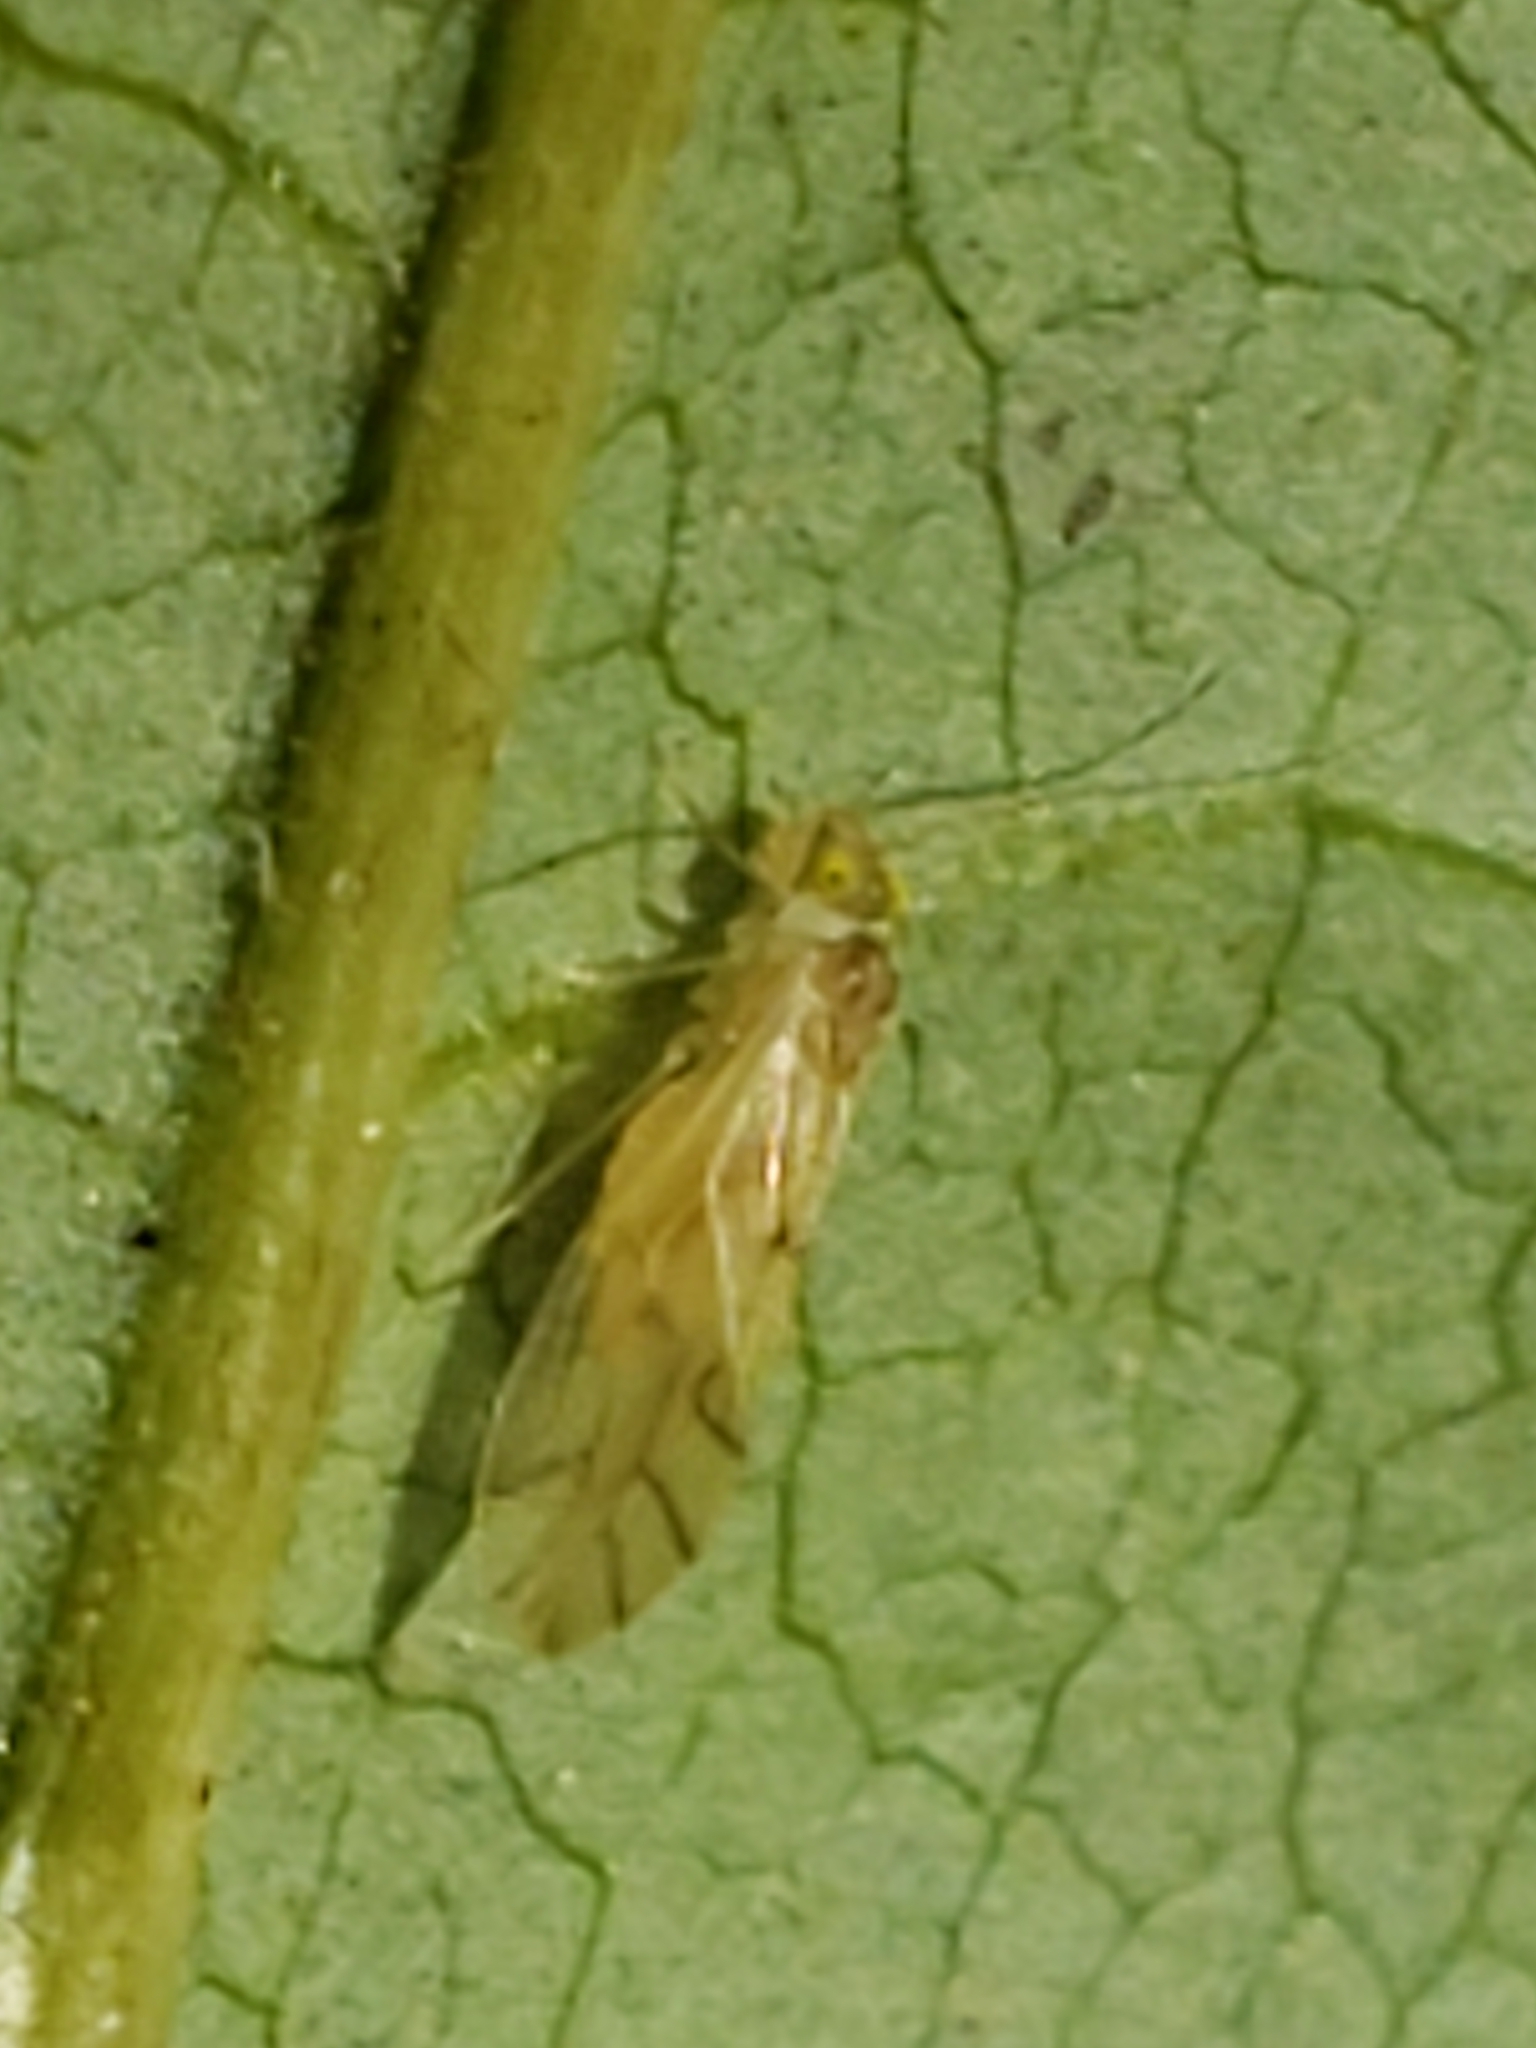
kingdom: Animalia
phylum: Arthropoda
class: Insecta
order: Psocodea
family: Caeciliusidae
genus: Valenzuela
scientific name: Valenzuela flavidus
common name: Yellow barklouse
